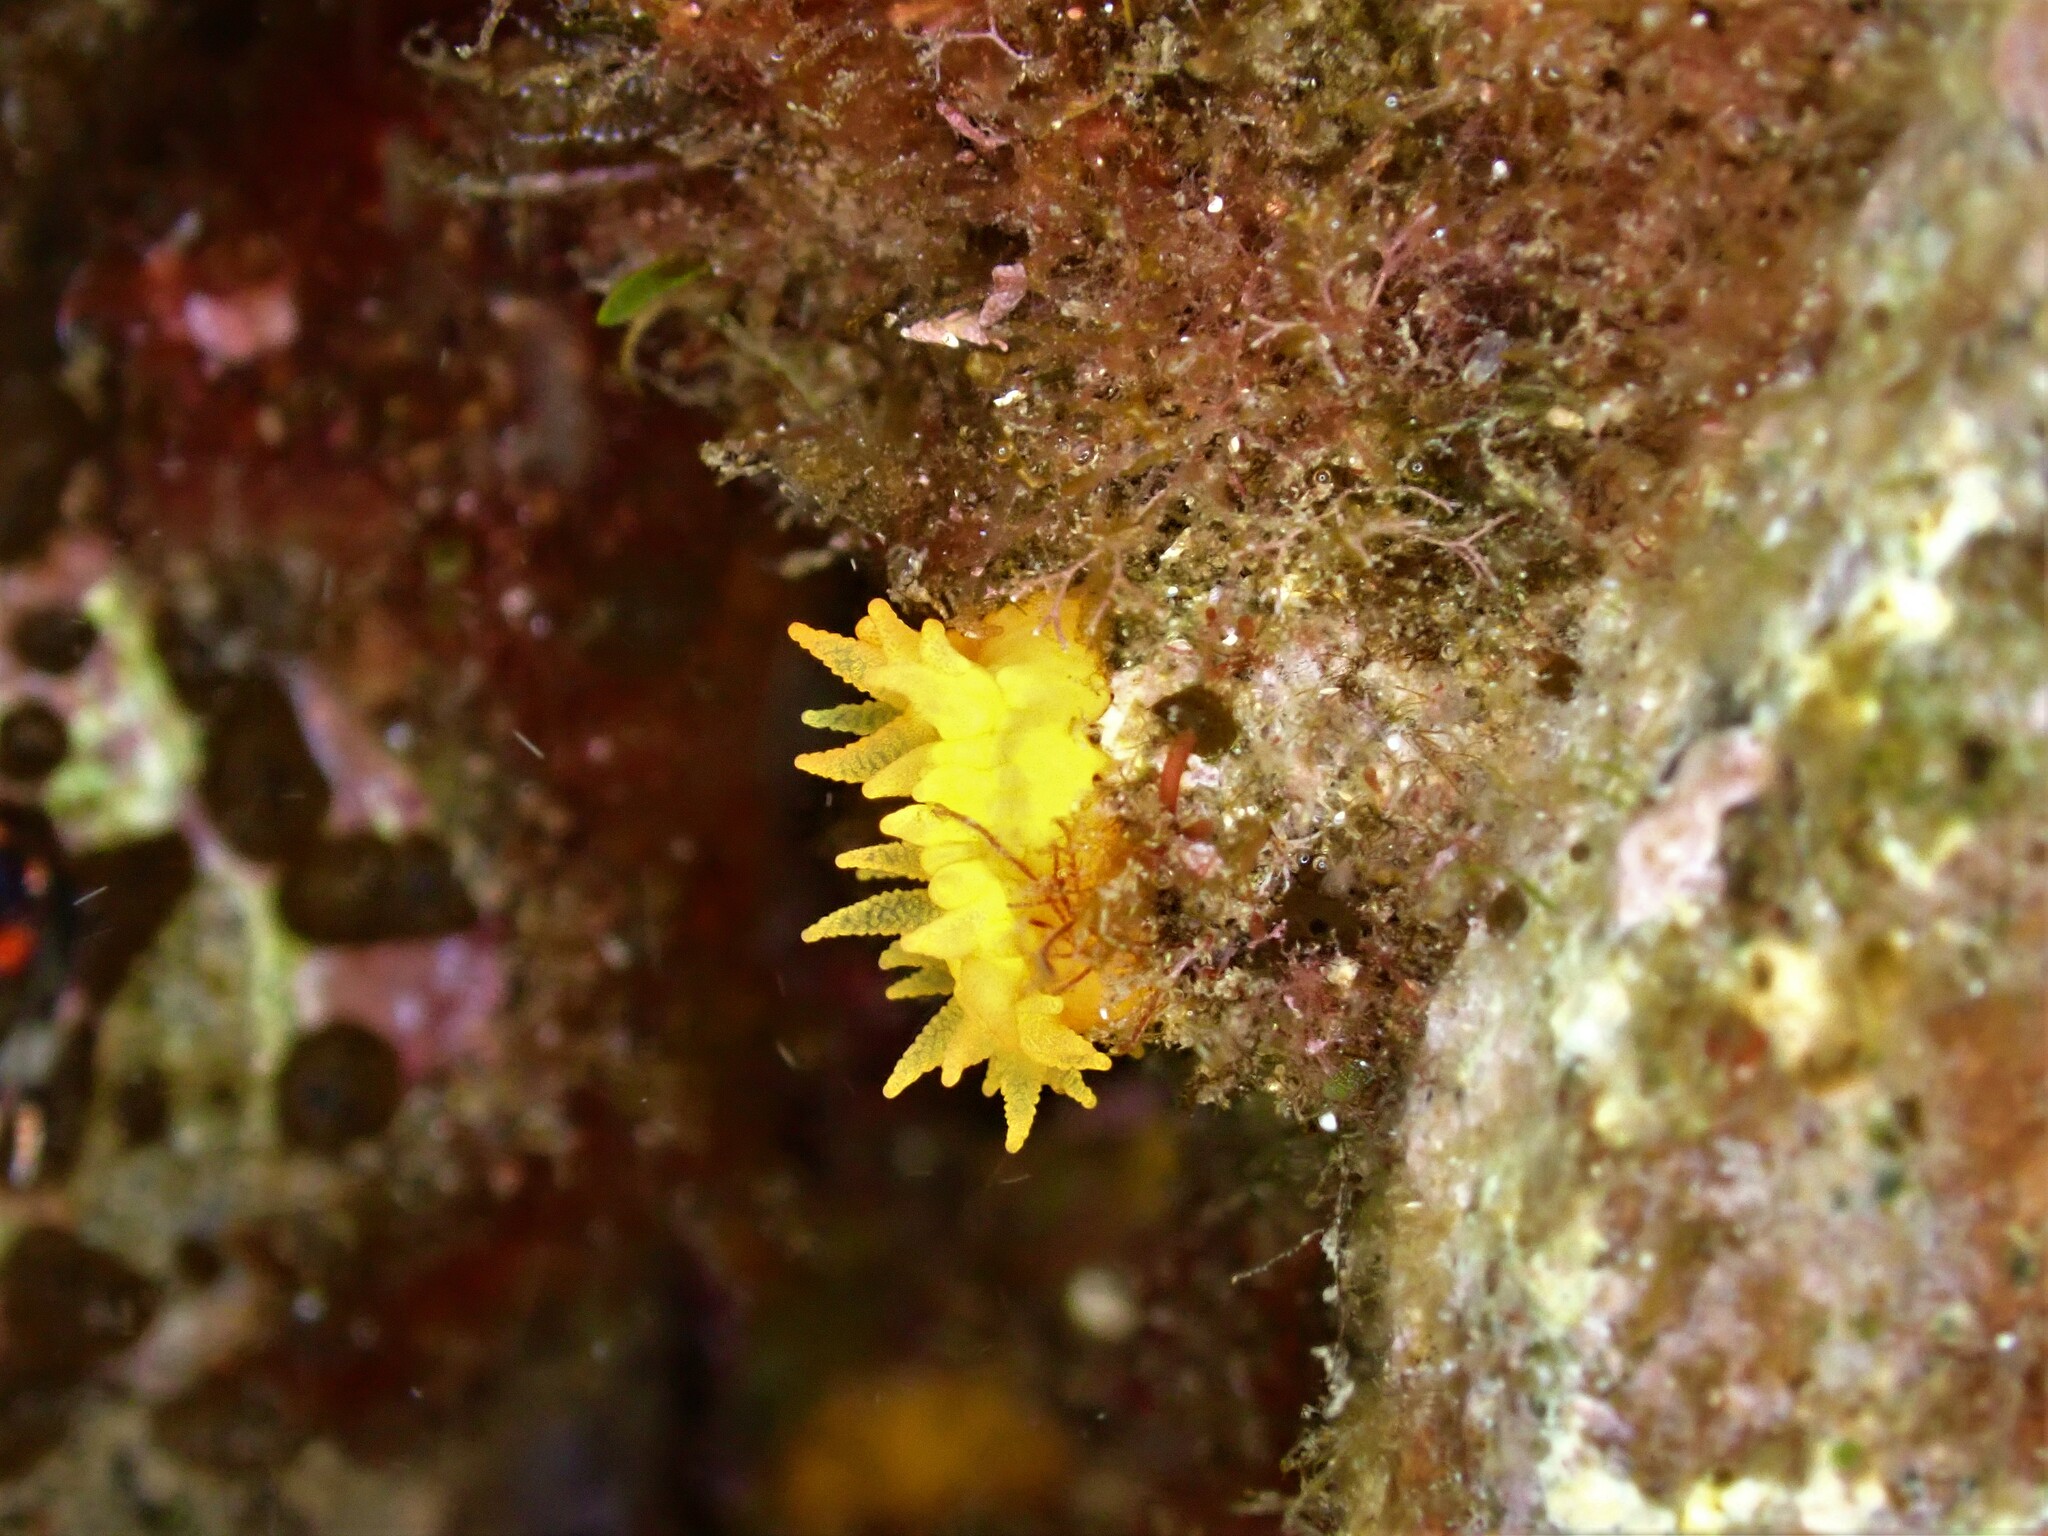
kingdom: Animalia
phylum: Cnidaria
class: Anthozoa
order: Scleractinia
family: Dendrophylliidae
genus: Balanophyllia
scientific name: Balanophyllia regia
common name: Golden star coral
